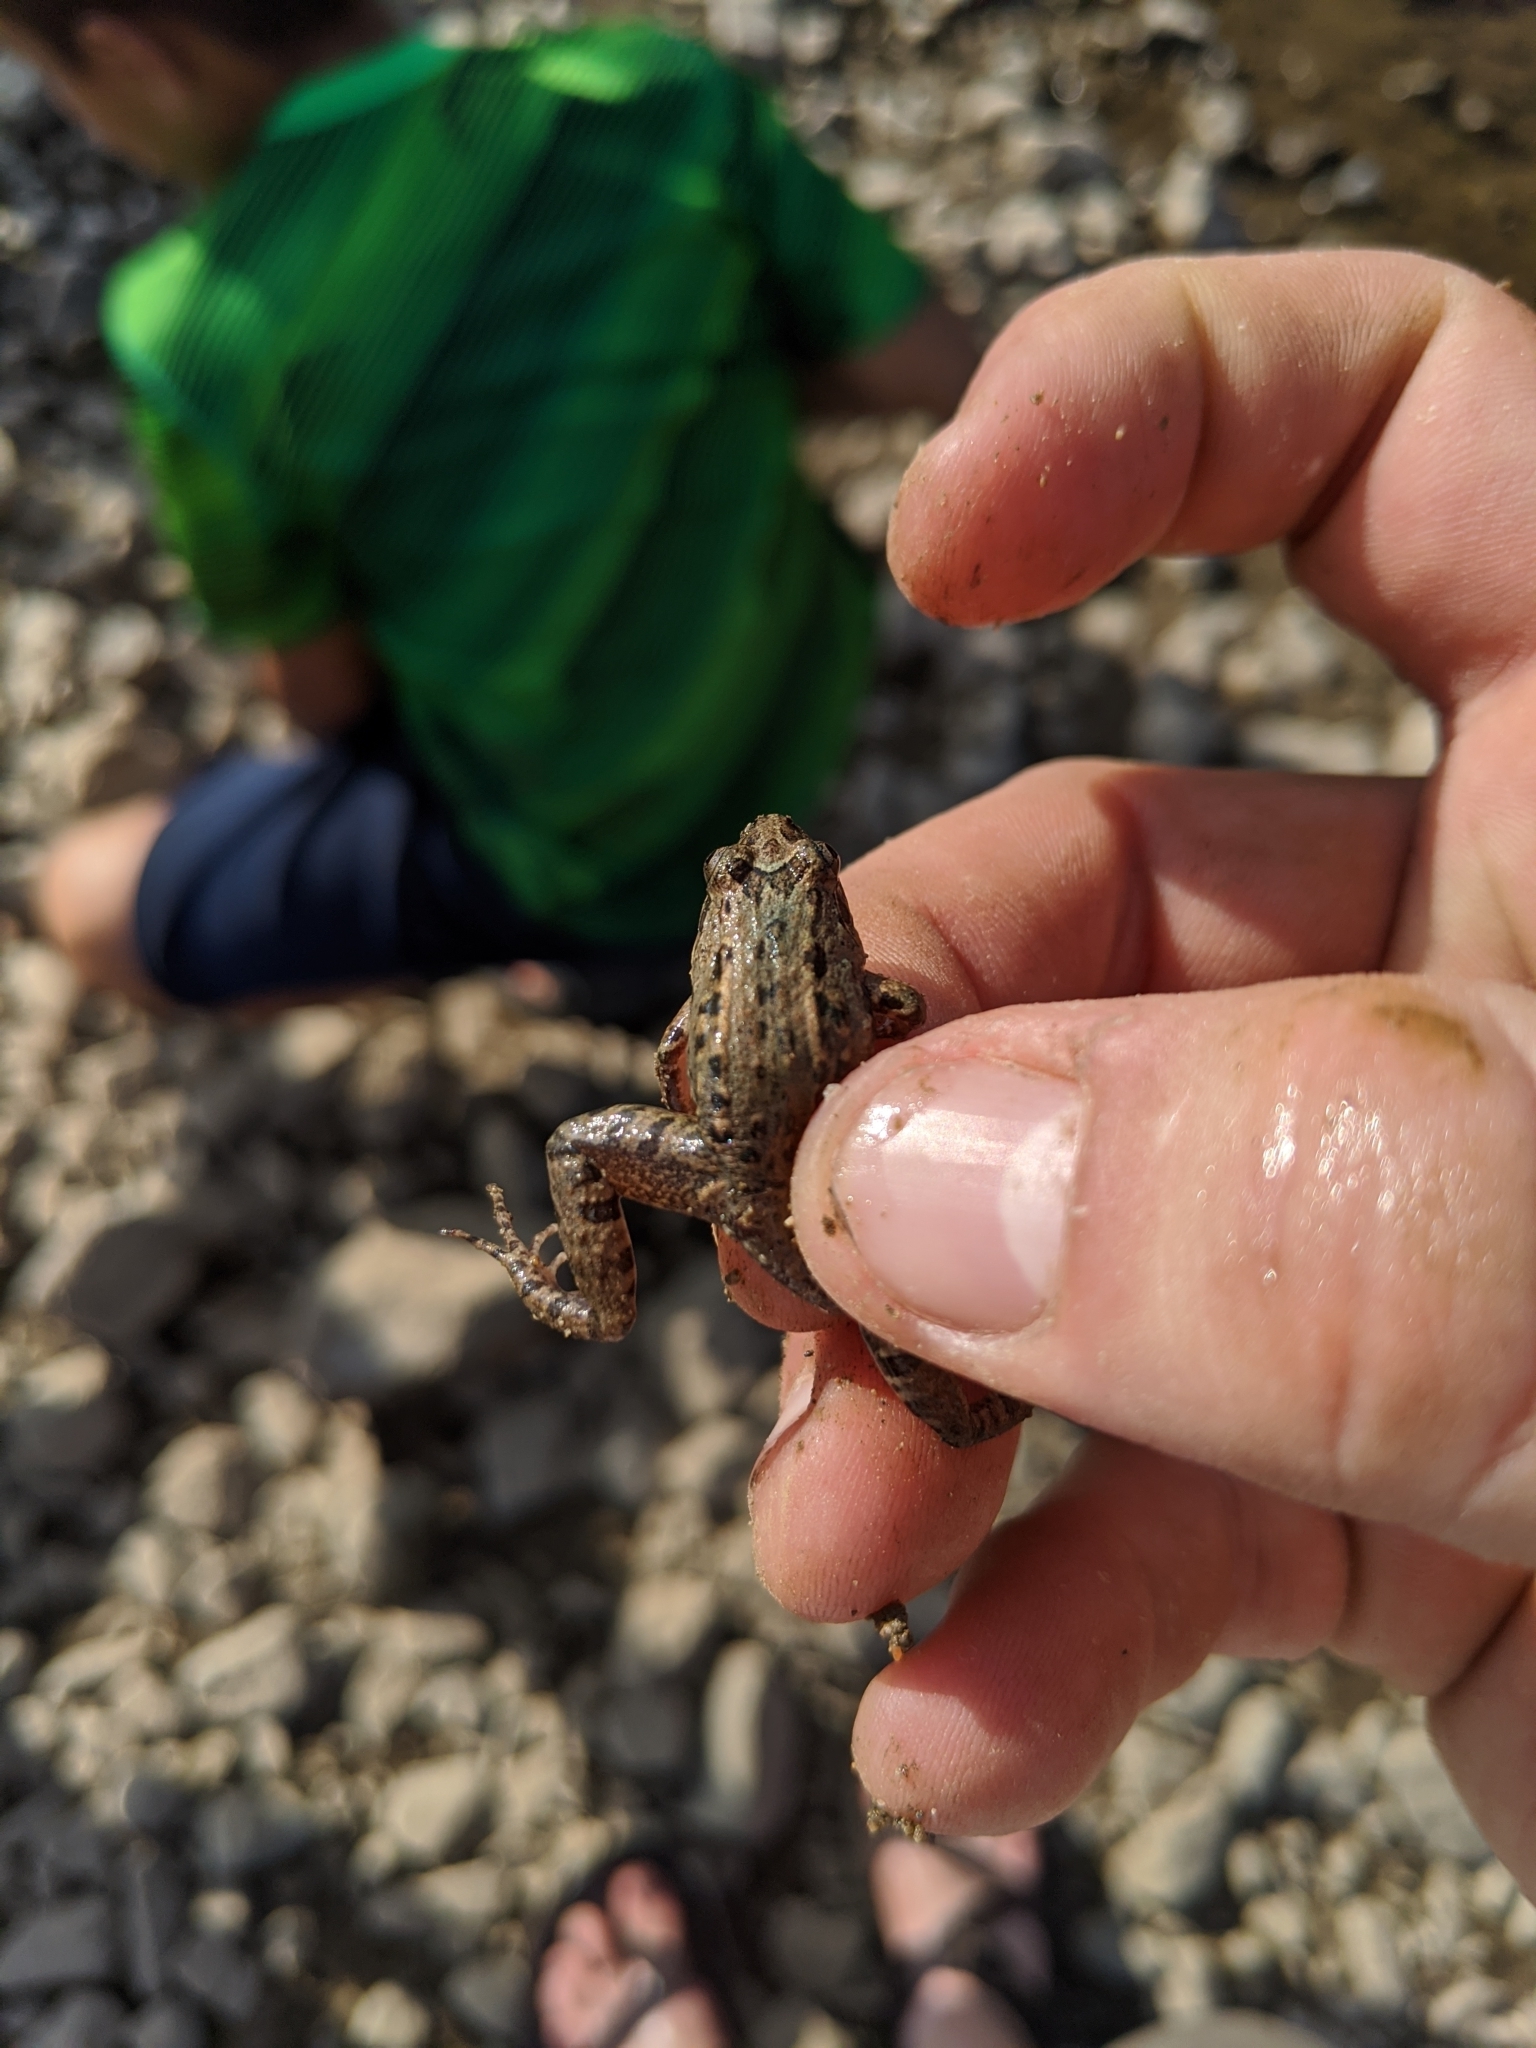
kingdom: Animalia
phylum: Chordata
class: Amphibia
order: Anura
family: Leptodactylidae
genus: Leptodactylus
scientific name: Leptodactylus melanonotus
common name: Fringe-toed foamfrog
